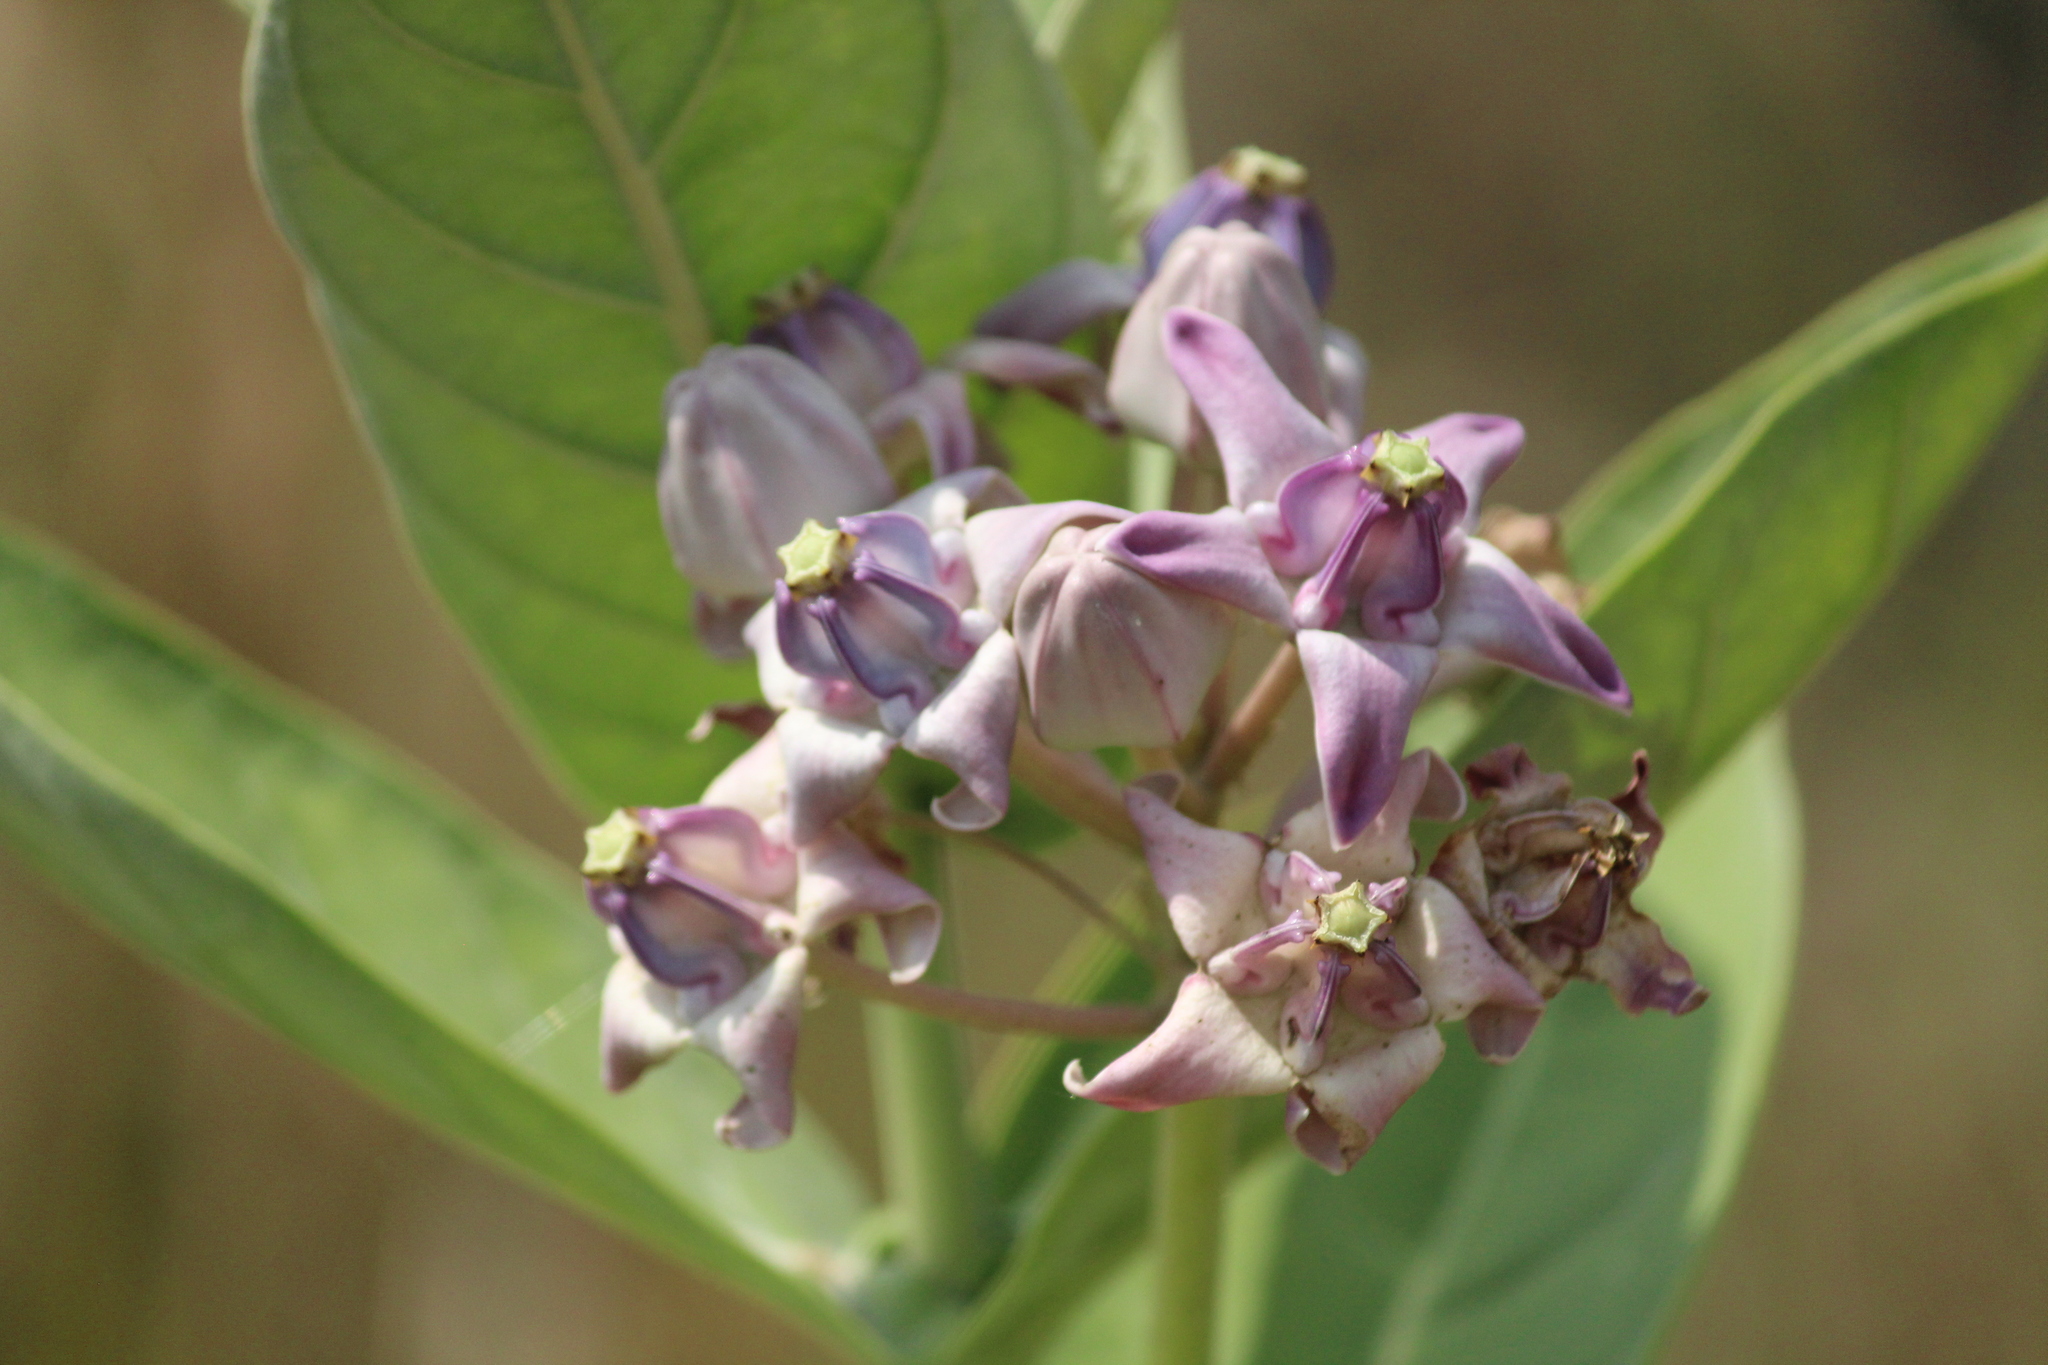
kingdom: Plantae
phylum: Tracheophyta
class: Magnoliopsida
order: Gentianales
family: Apocynaceae
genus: Calotropis
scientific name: Calotropis gigantea
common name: Crown flower
